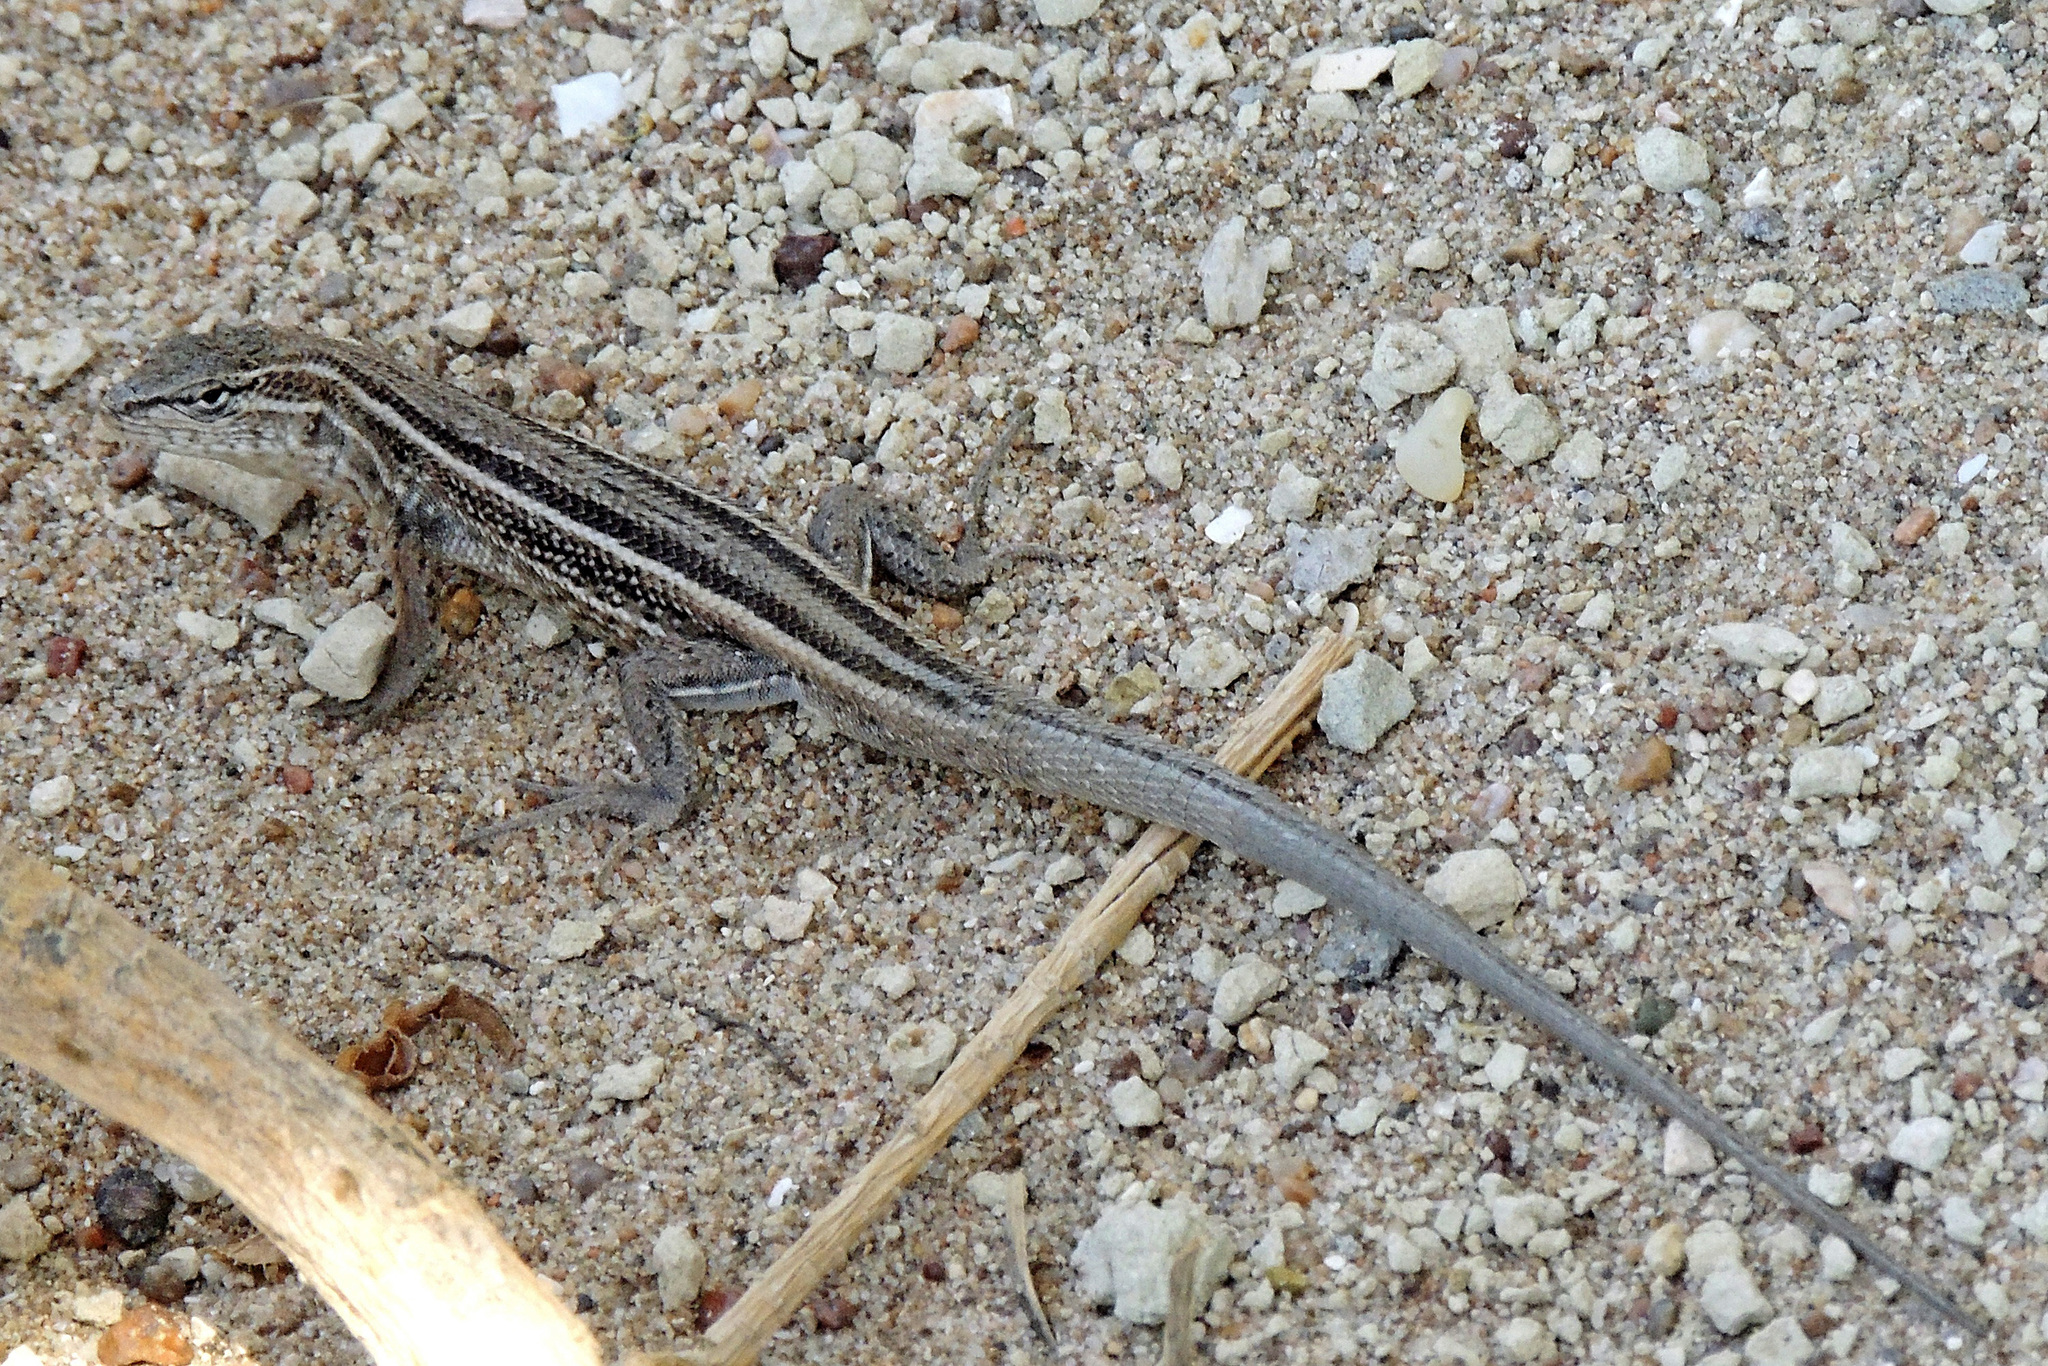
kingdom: Animalia
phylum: Chordata
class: Squamata
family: Liolaemidae
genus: Liolaemus
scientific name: Liolaemus gracilis
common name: Graceful tree iguana
